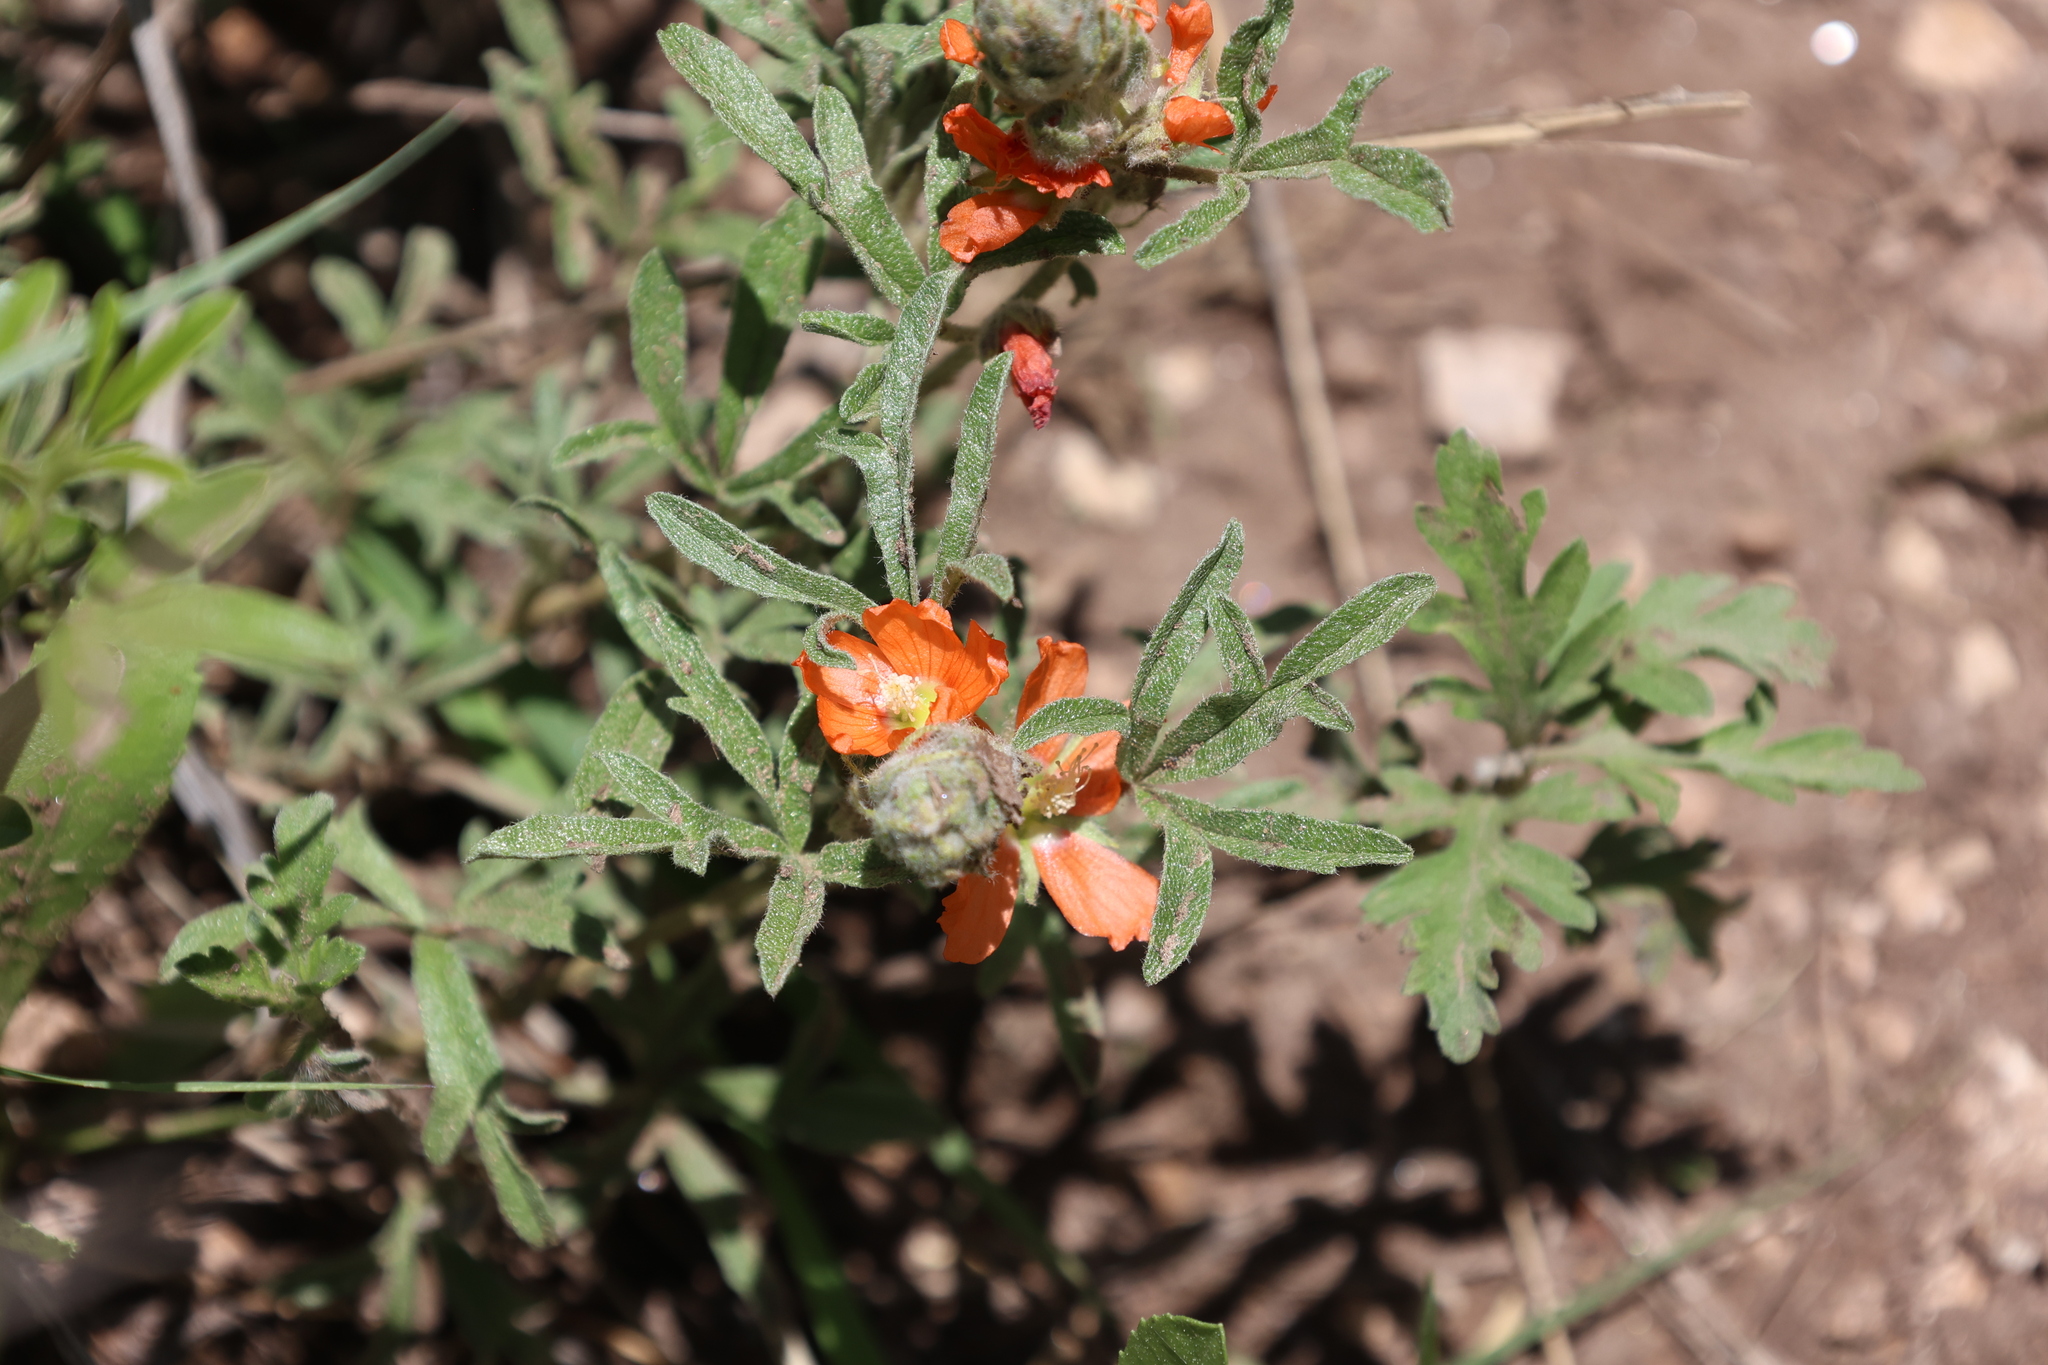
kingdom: Plantae
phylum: Tracheophyta
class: Magnoliopsida
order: Malvales
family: Malvaceae
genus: Sphaeralcea
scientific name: Sphaeralcea coccinea
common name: Moss-rose
